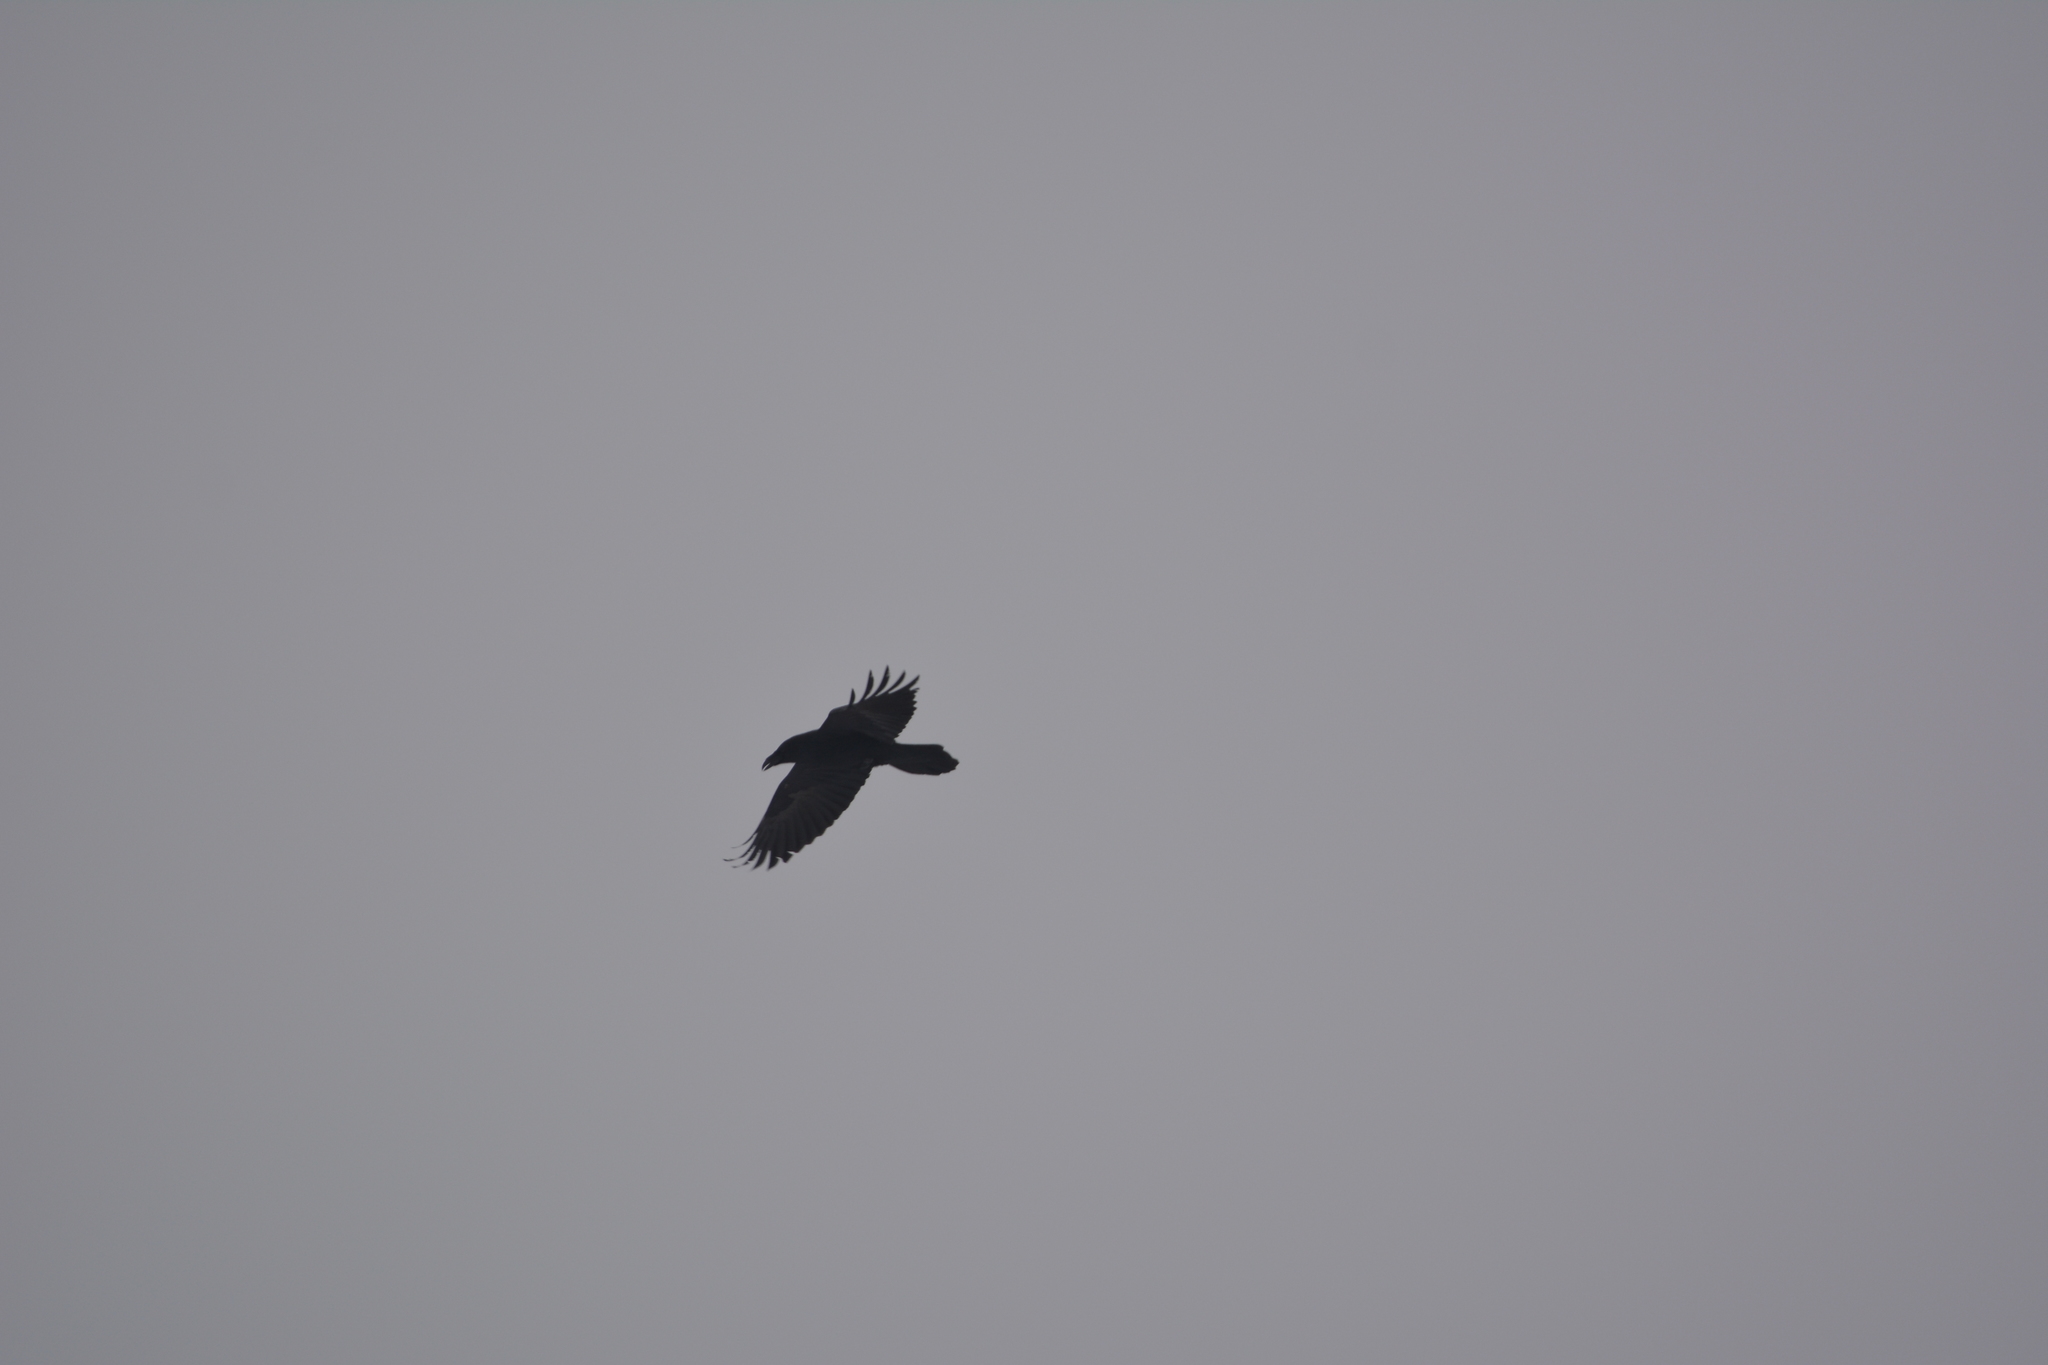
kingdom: Animalia
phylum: Chordata
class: Aves
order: Passeriformes
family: Corvidae
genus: Corvus
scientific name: Corvus corax
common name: Common raven
